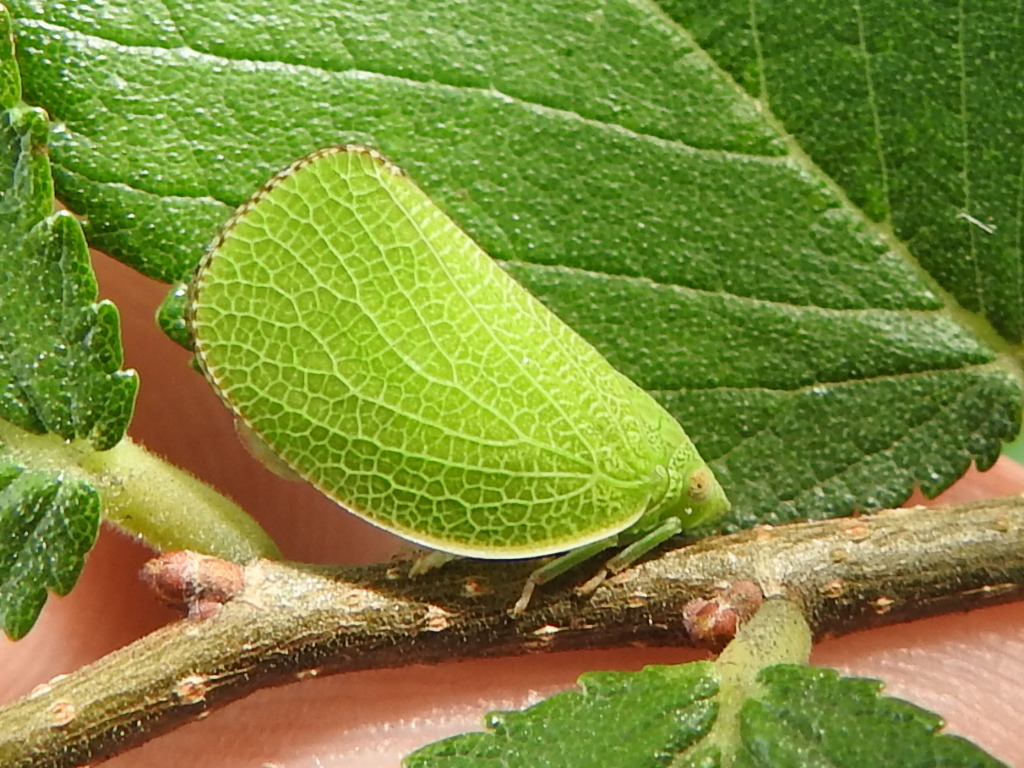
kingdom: Animalia
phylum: Arthropoda
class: Insecta
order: Hemiptera
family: Acanaloniidae
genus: Acanalonia
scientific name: Acanalonia conica
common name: Green cone-headed planthopper
